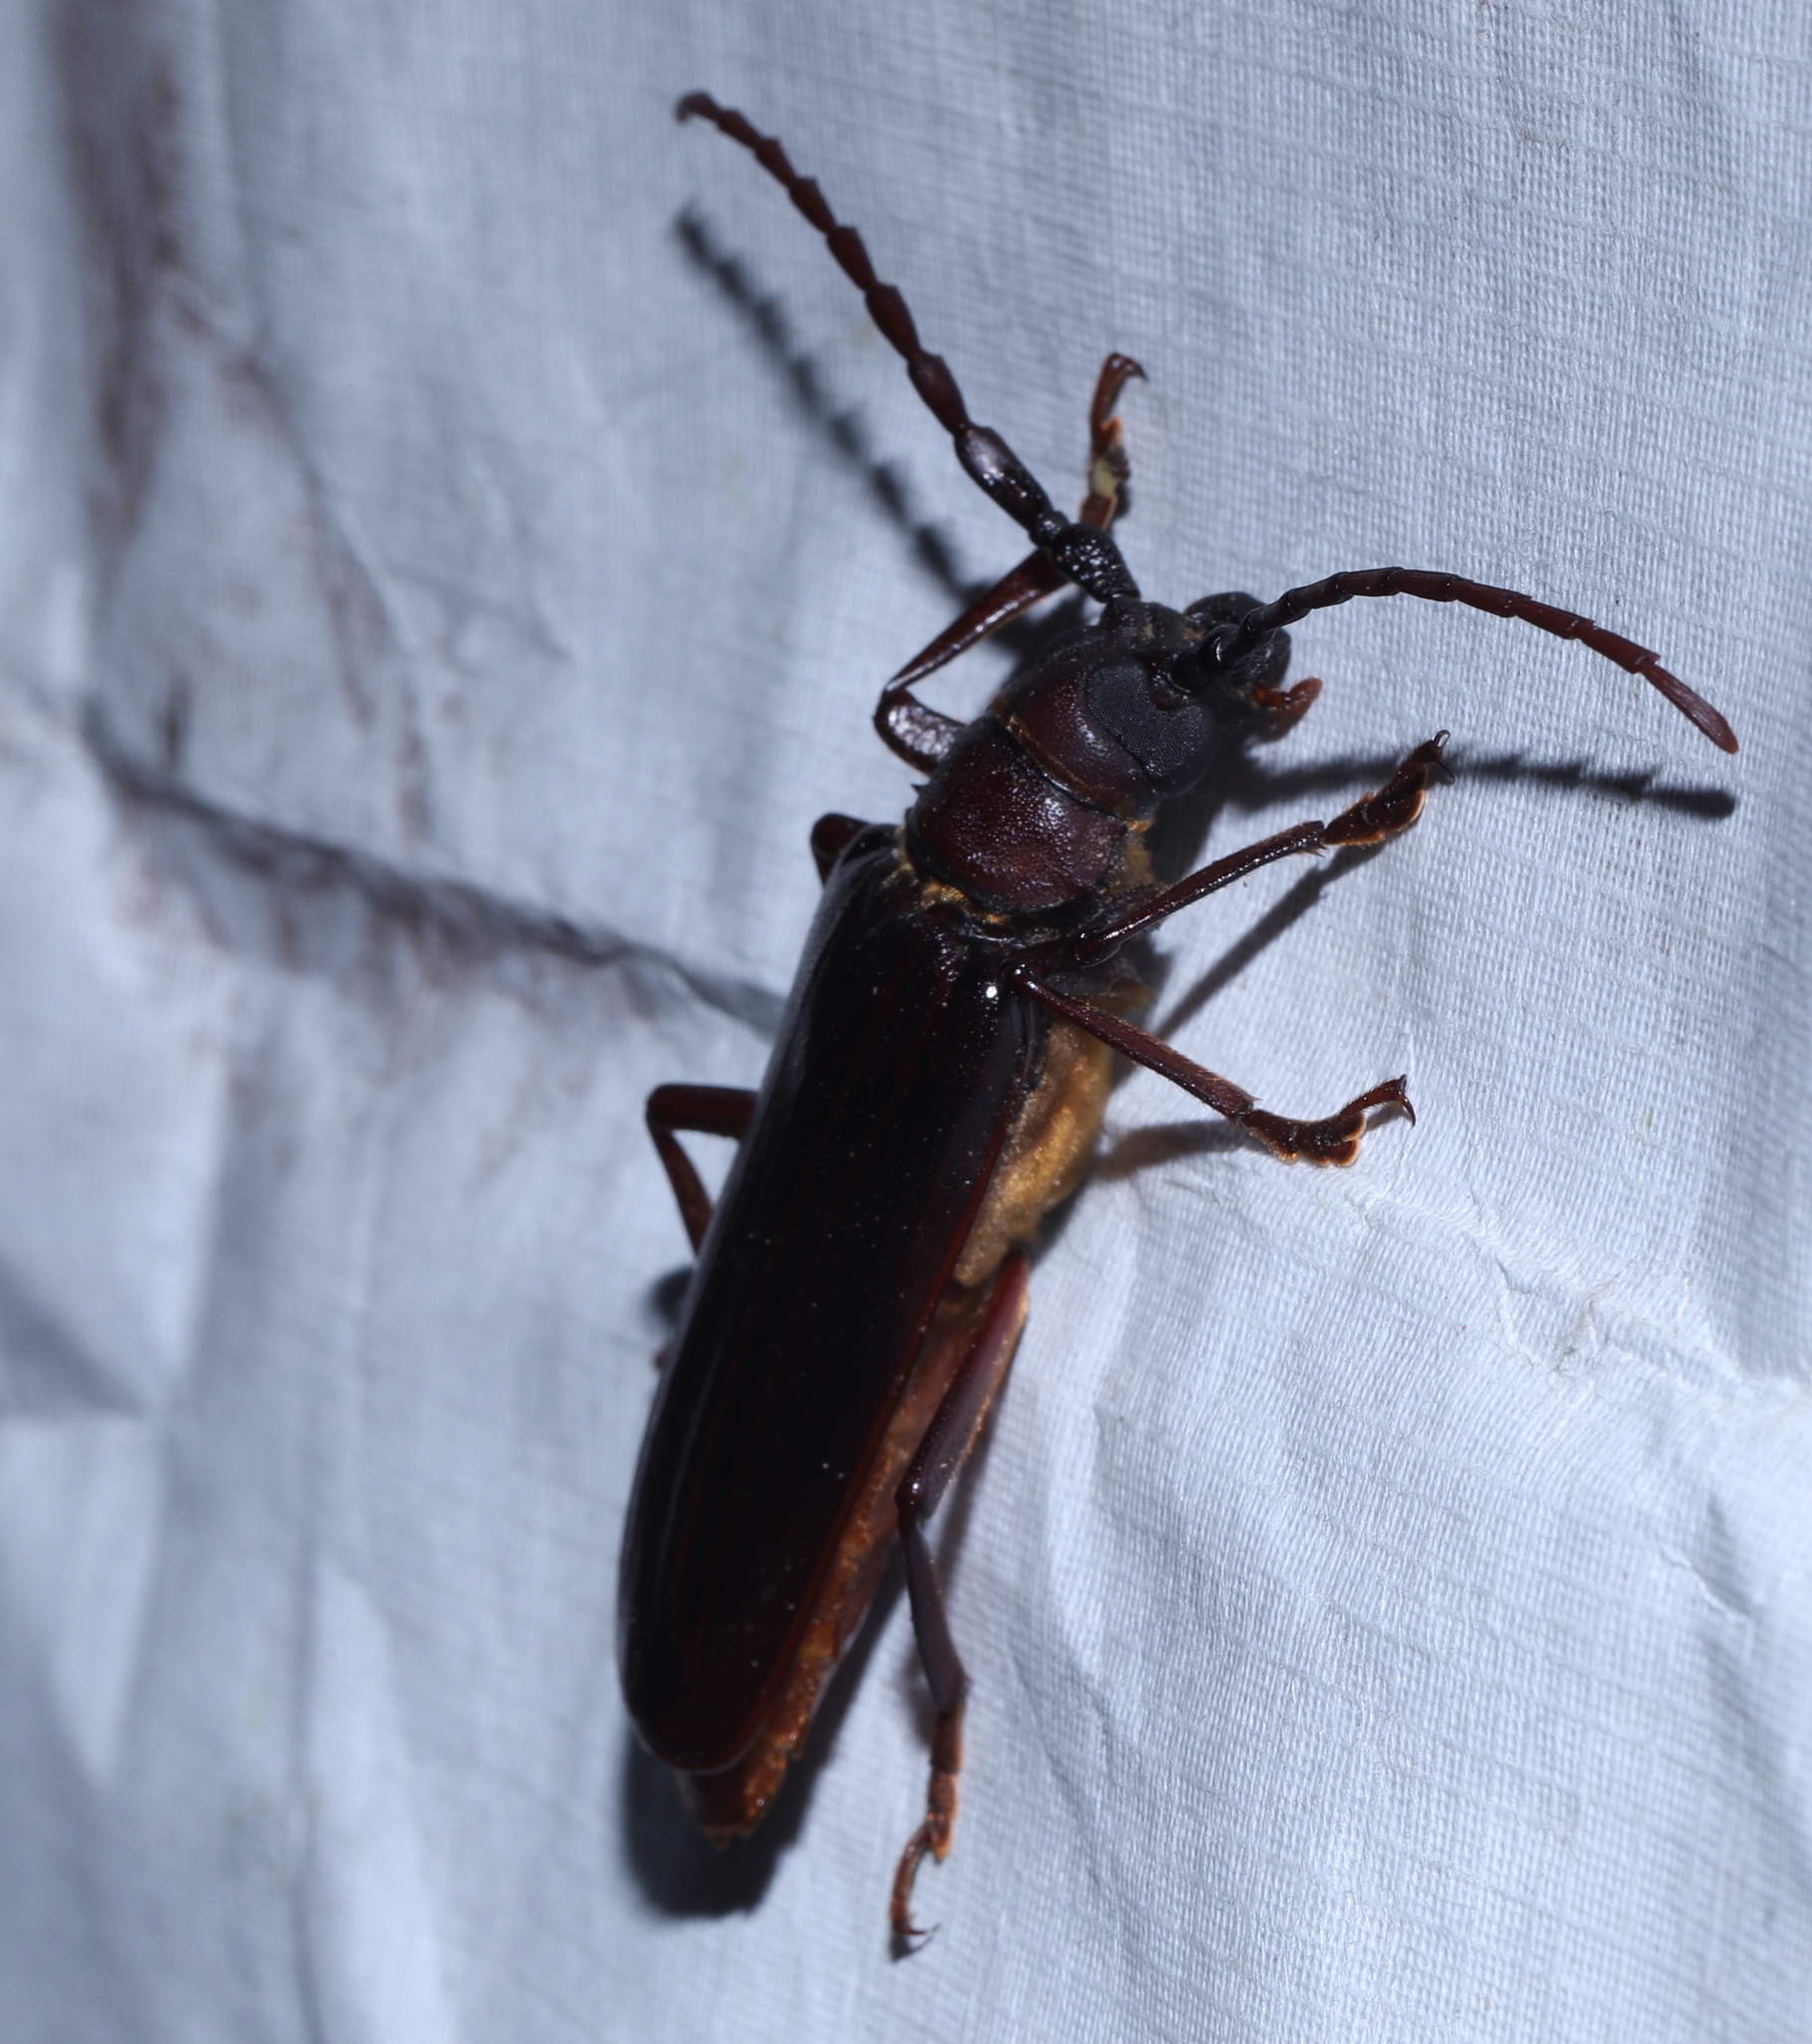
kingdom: Animalia
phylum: Arthropoda
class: Insecta
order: Coleoptera
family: Cerambycidae
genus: Orthosoma
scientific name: Orthosoma brunneum
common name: Brown prionid beetle
